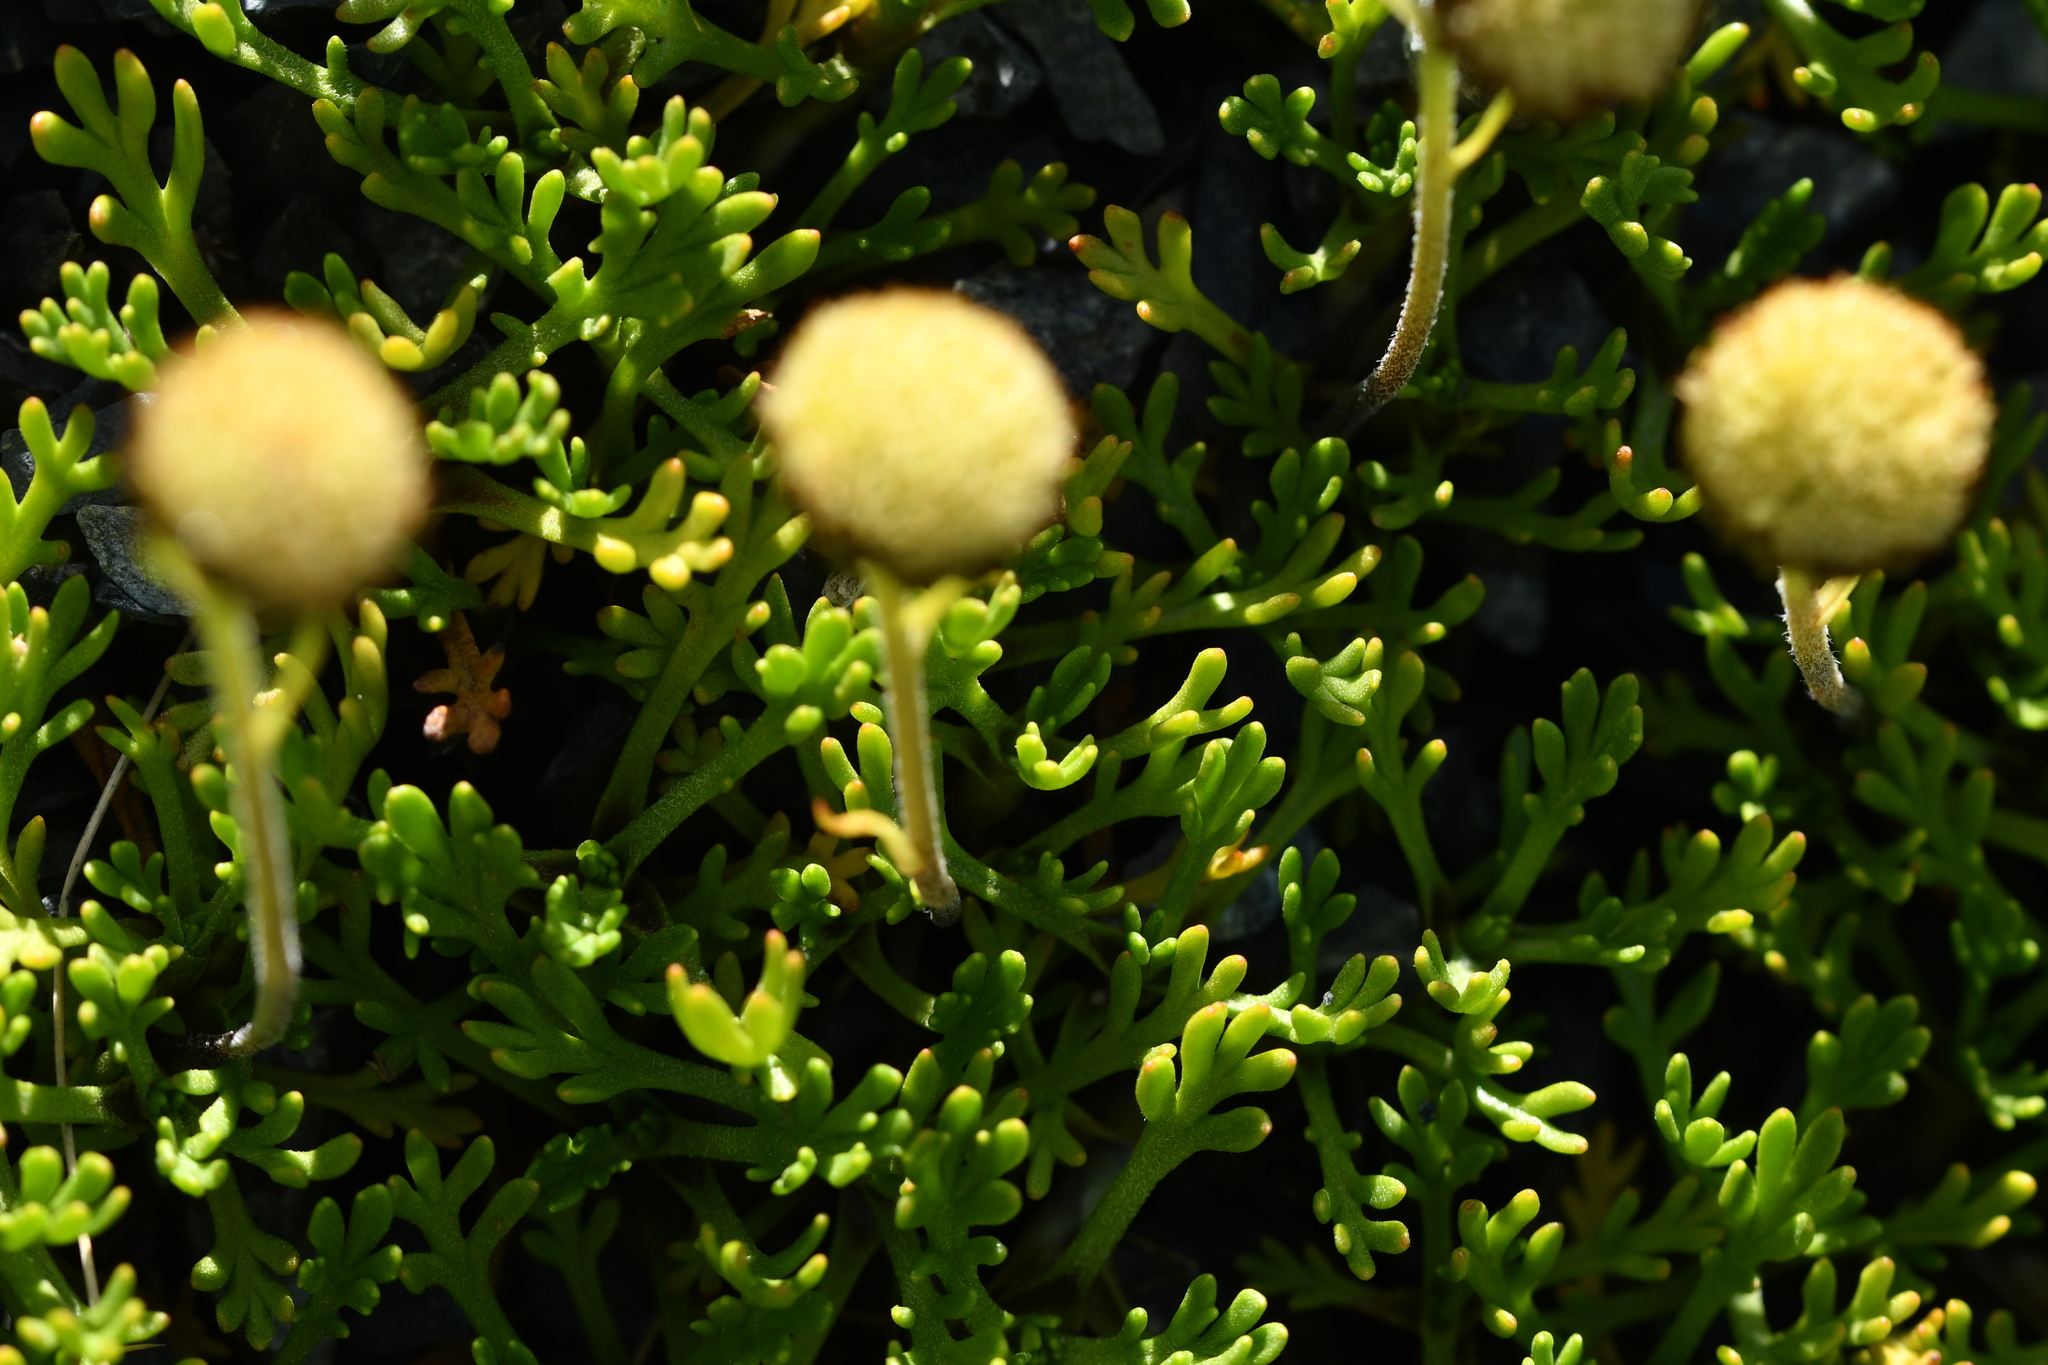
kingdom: Plantae
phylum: Tracheophyta
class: Magnoliopsida
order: Asterales
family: Asteraceae
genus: Leptinella
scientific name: Leptinella pyrethrifolia
